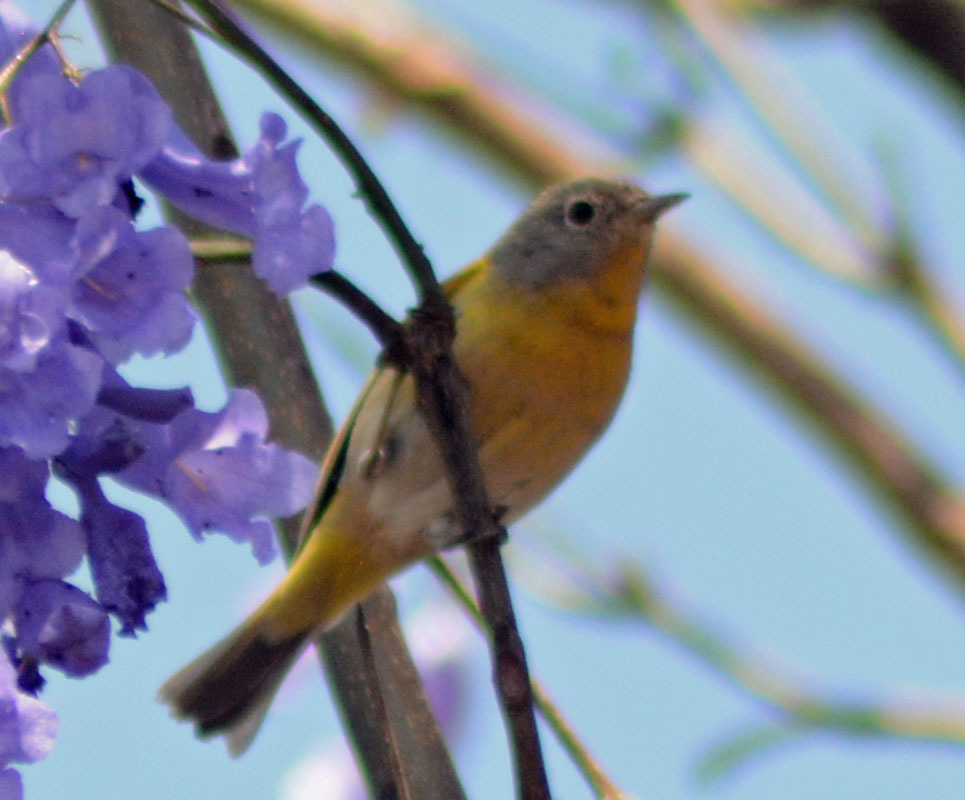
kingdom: Animalia
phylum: Chordata
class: Aves
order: Passeriformes
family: Parulidae
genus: Leiothlypis
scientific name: Leiothlypis ruficapilla
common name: Nashville warbler
